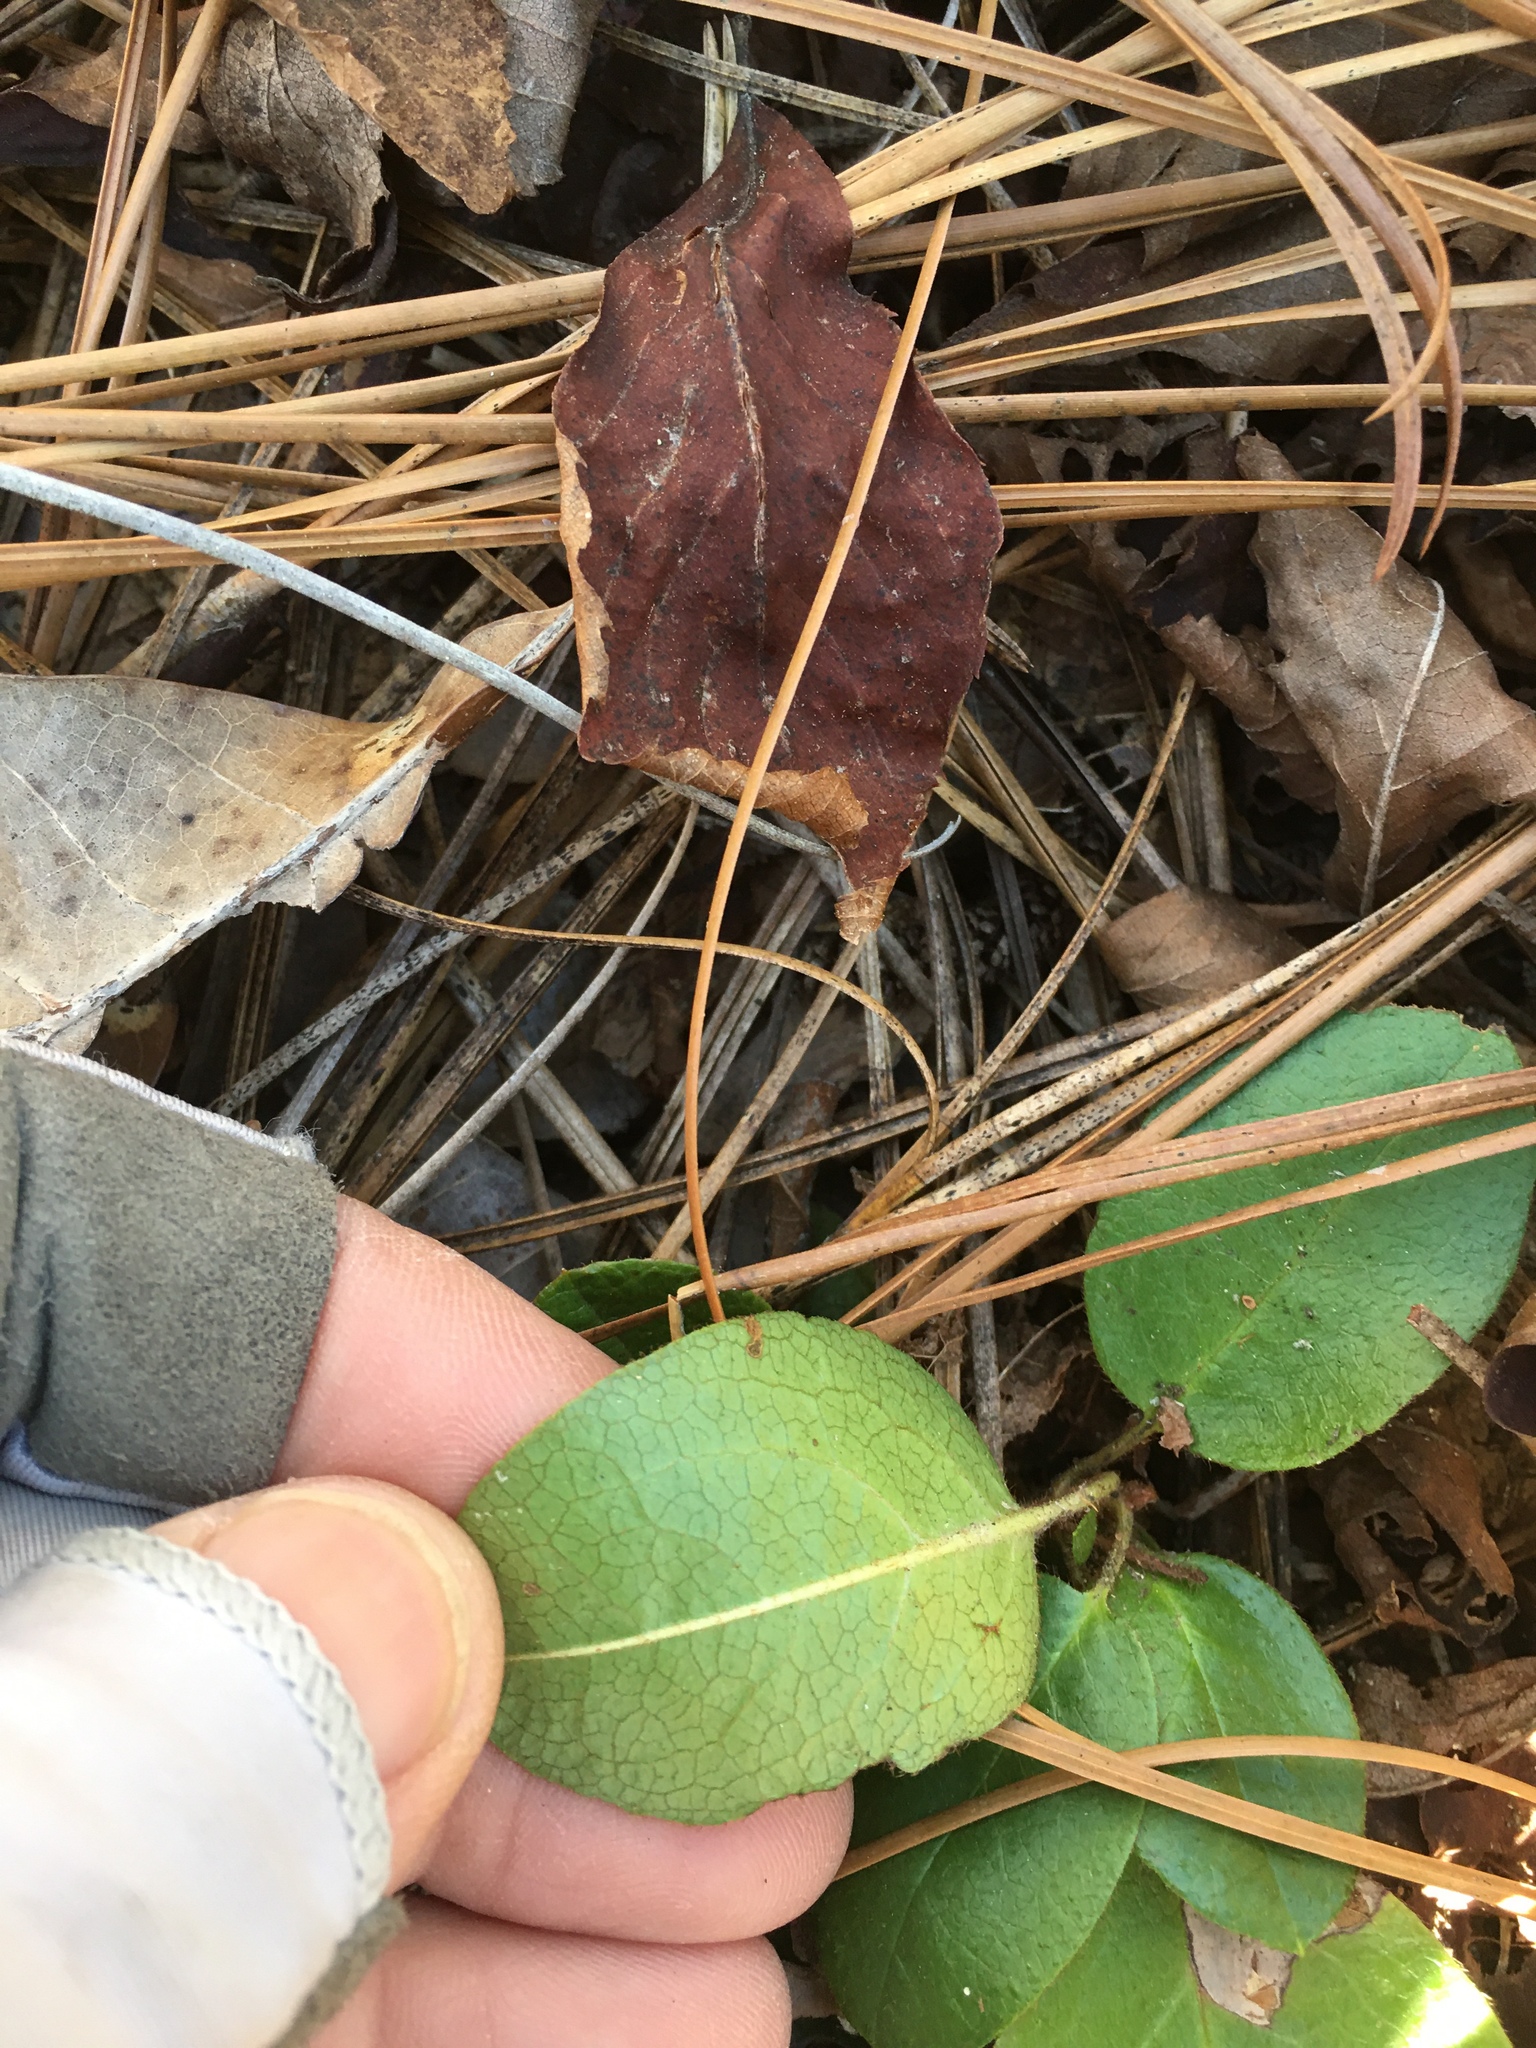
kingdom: Plantae
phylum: Tracheophyta
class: Magnoliopsida
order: Ericales
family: Ericaceae
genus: Epigaea
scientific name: Epigaea repens
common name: Gravelroot
